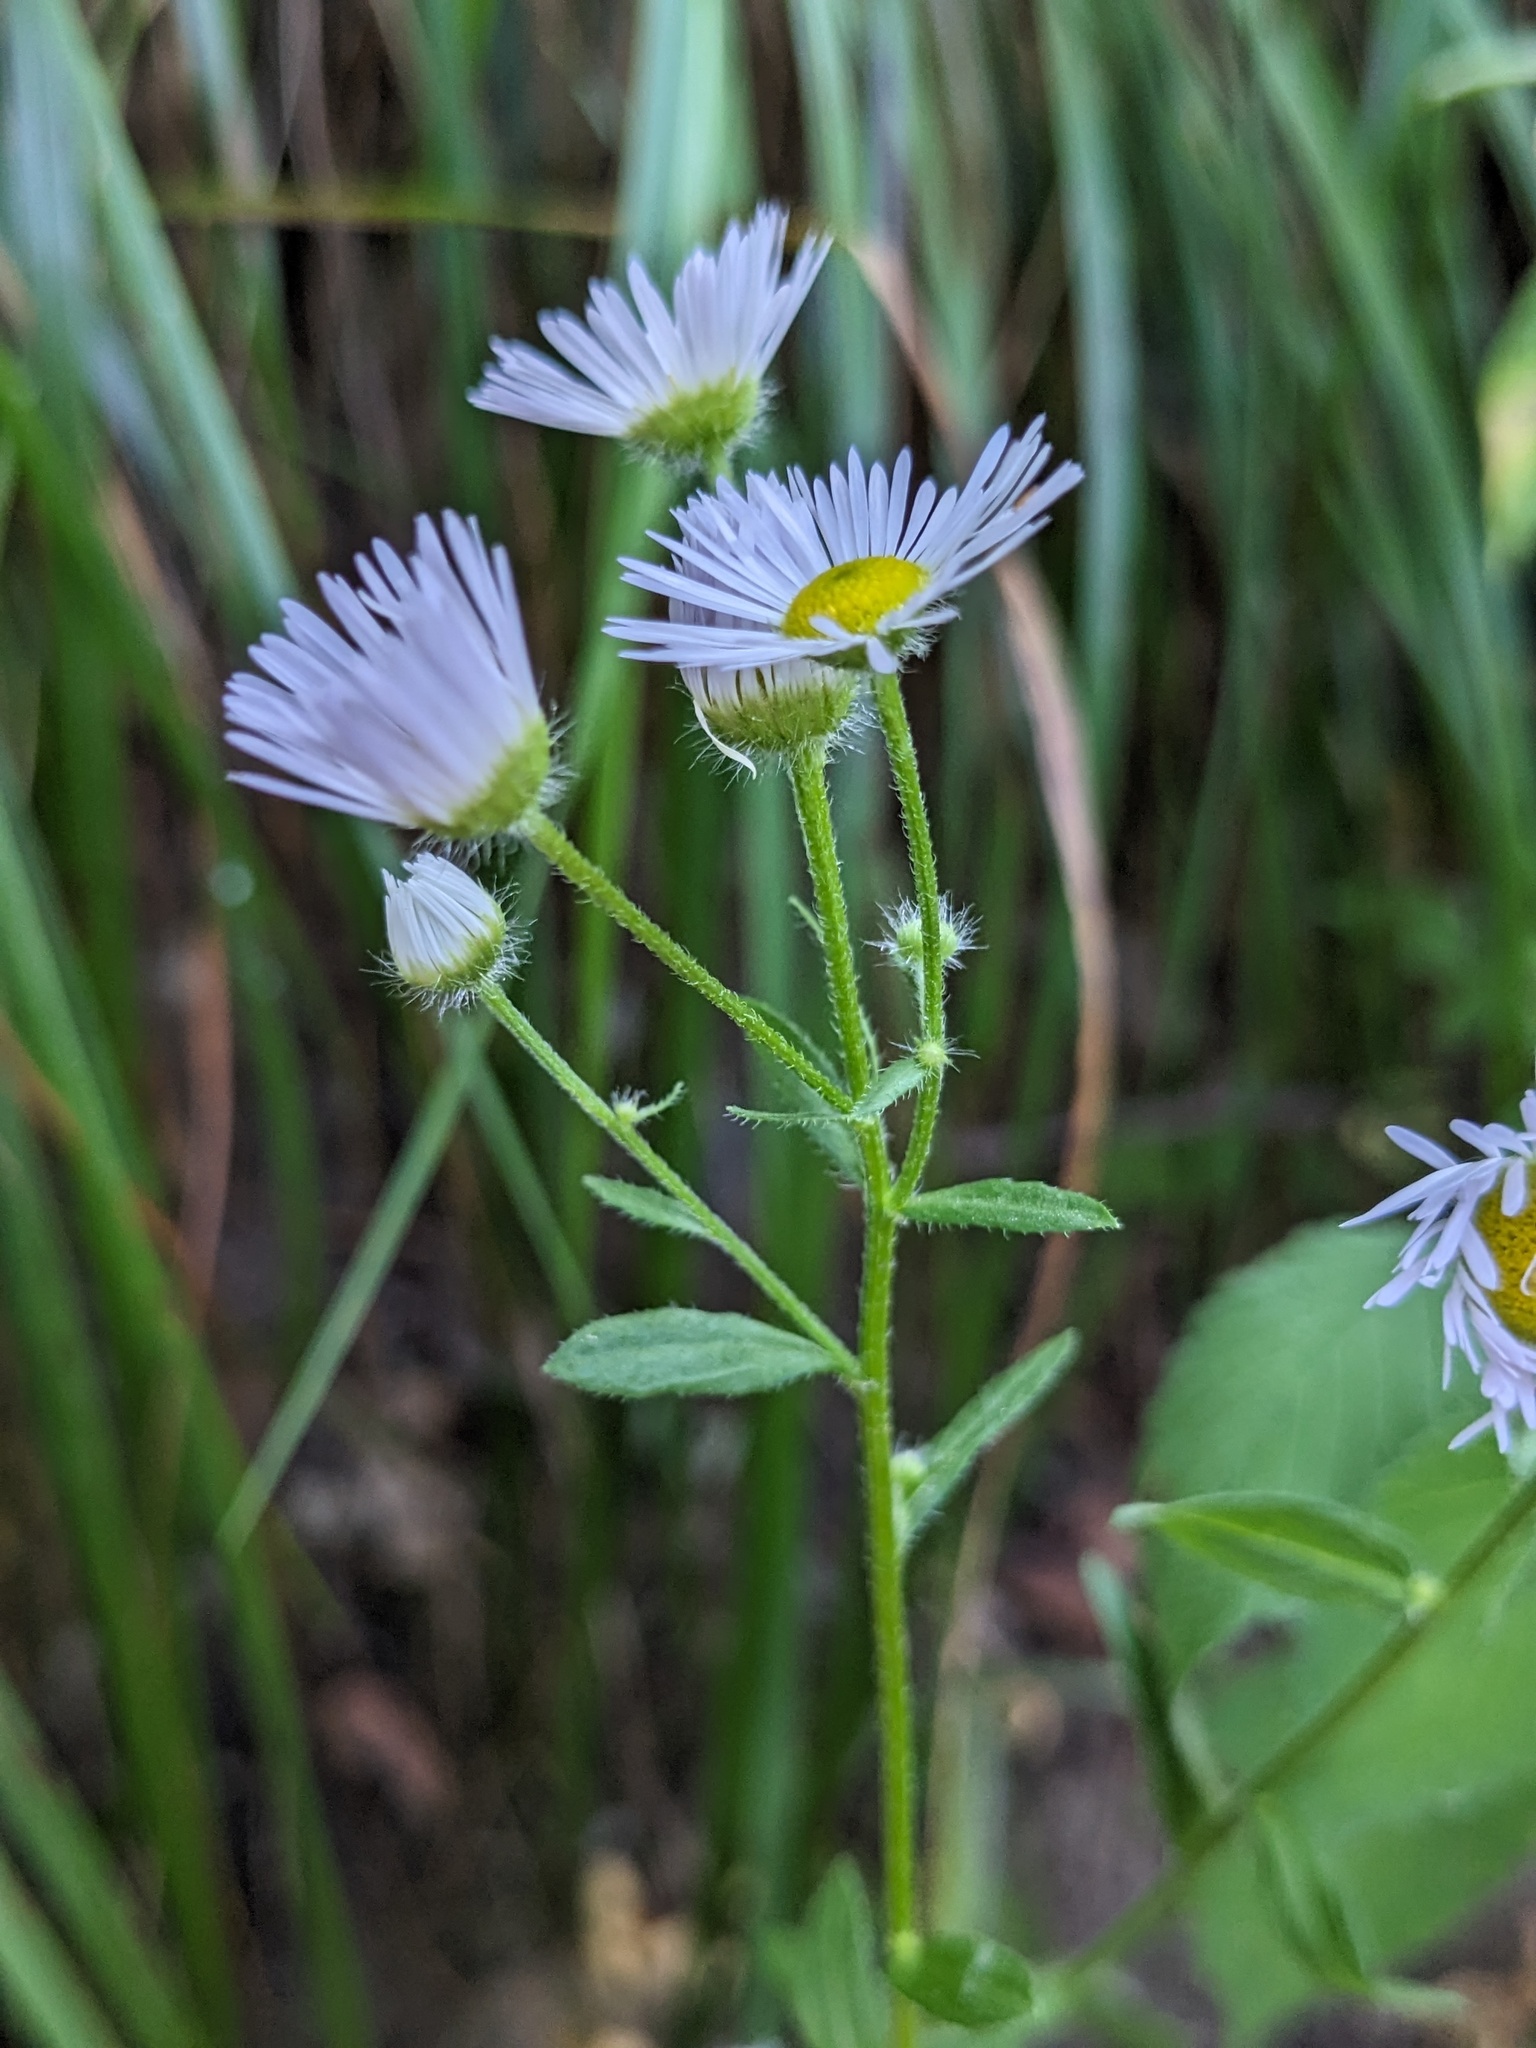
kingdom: Plantae
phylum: Tracheophyta
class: Magnoliopsida
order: Asterales
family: Asteraceae
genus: Erigeron
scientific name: Erigeron annuus
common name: Tall fleabane
